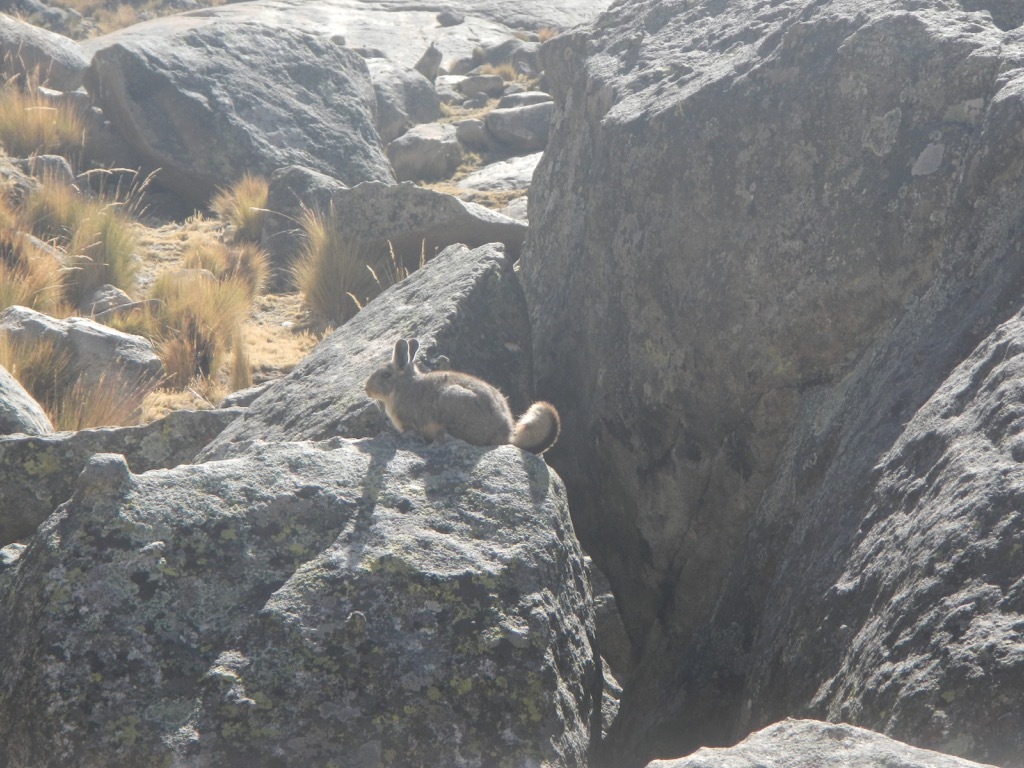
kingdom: Animalia
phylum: Chordata
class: Mammalia
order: Rodentia
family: Chinchillidae
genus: Lagidium
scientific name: Lagidium viscacia
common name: Southern viscacha
